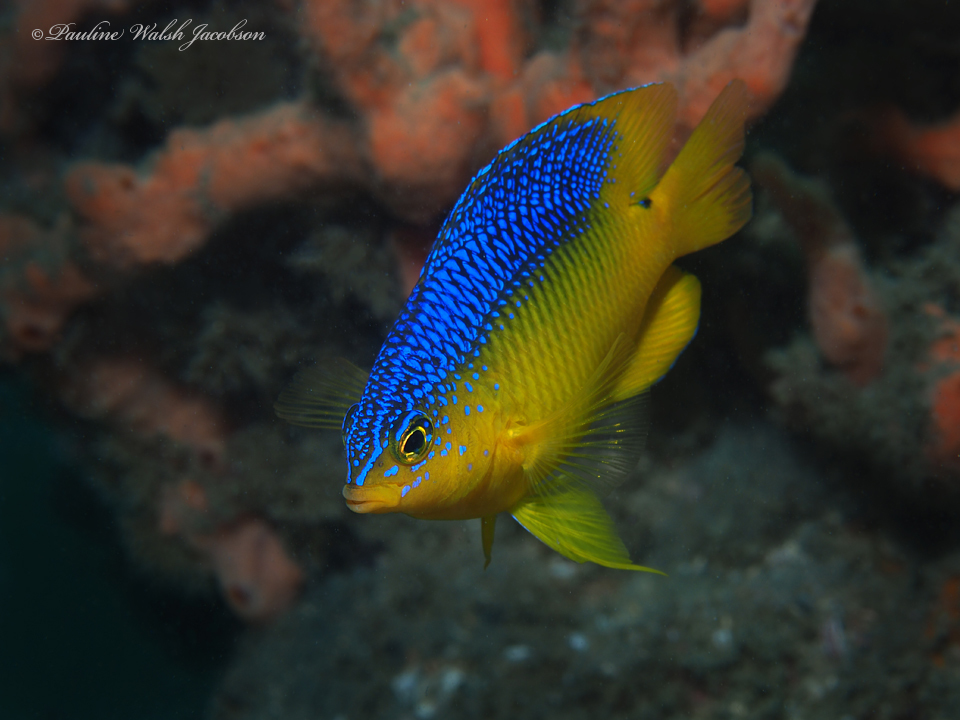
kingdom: Animalia
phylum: Chordata
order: Perciformes
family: Pomacentridae
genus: Stegastes
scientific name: Stegastes xanthurus
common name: Cocoa damselfish
